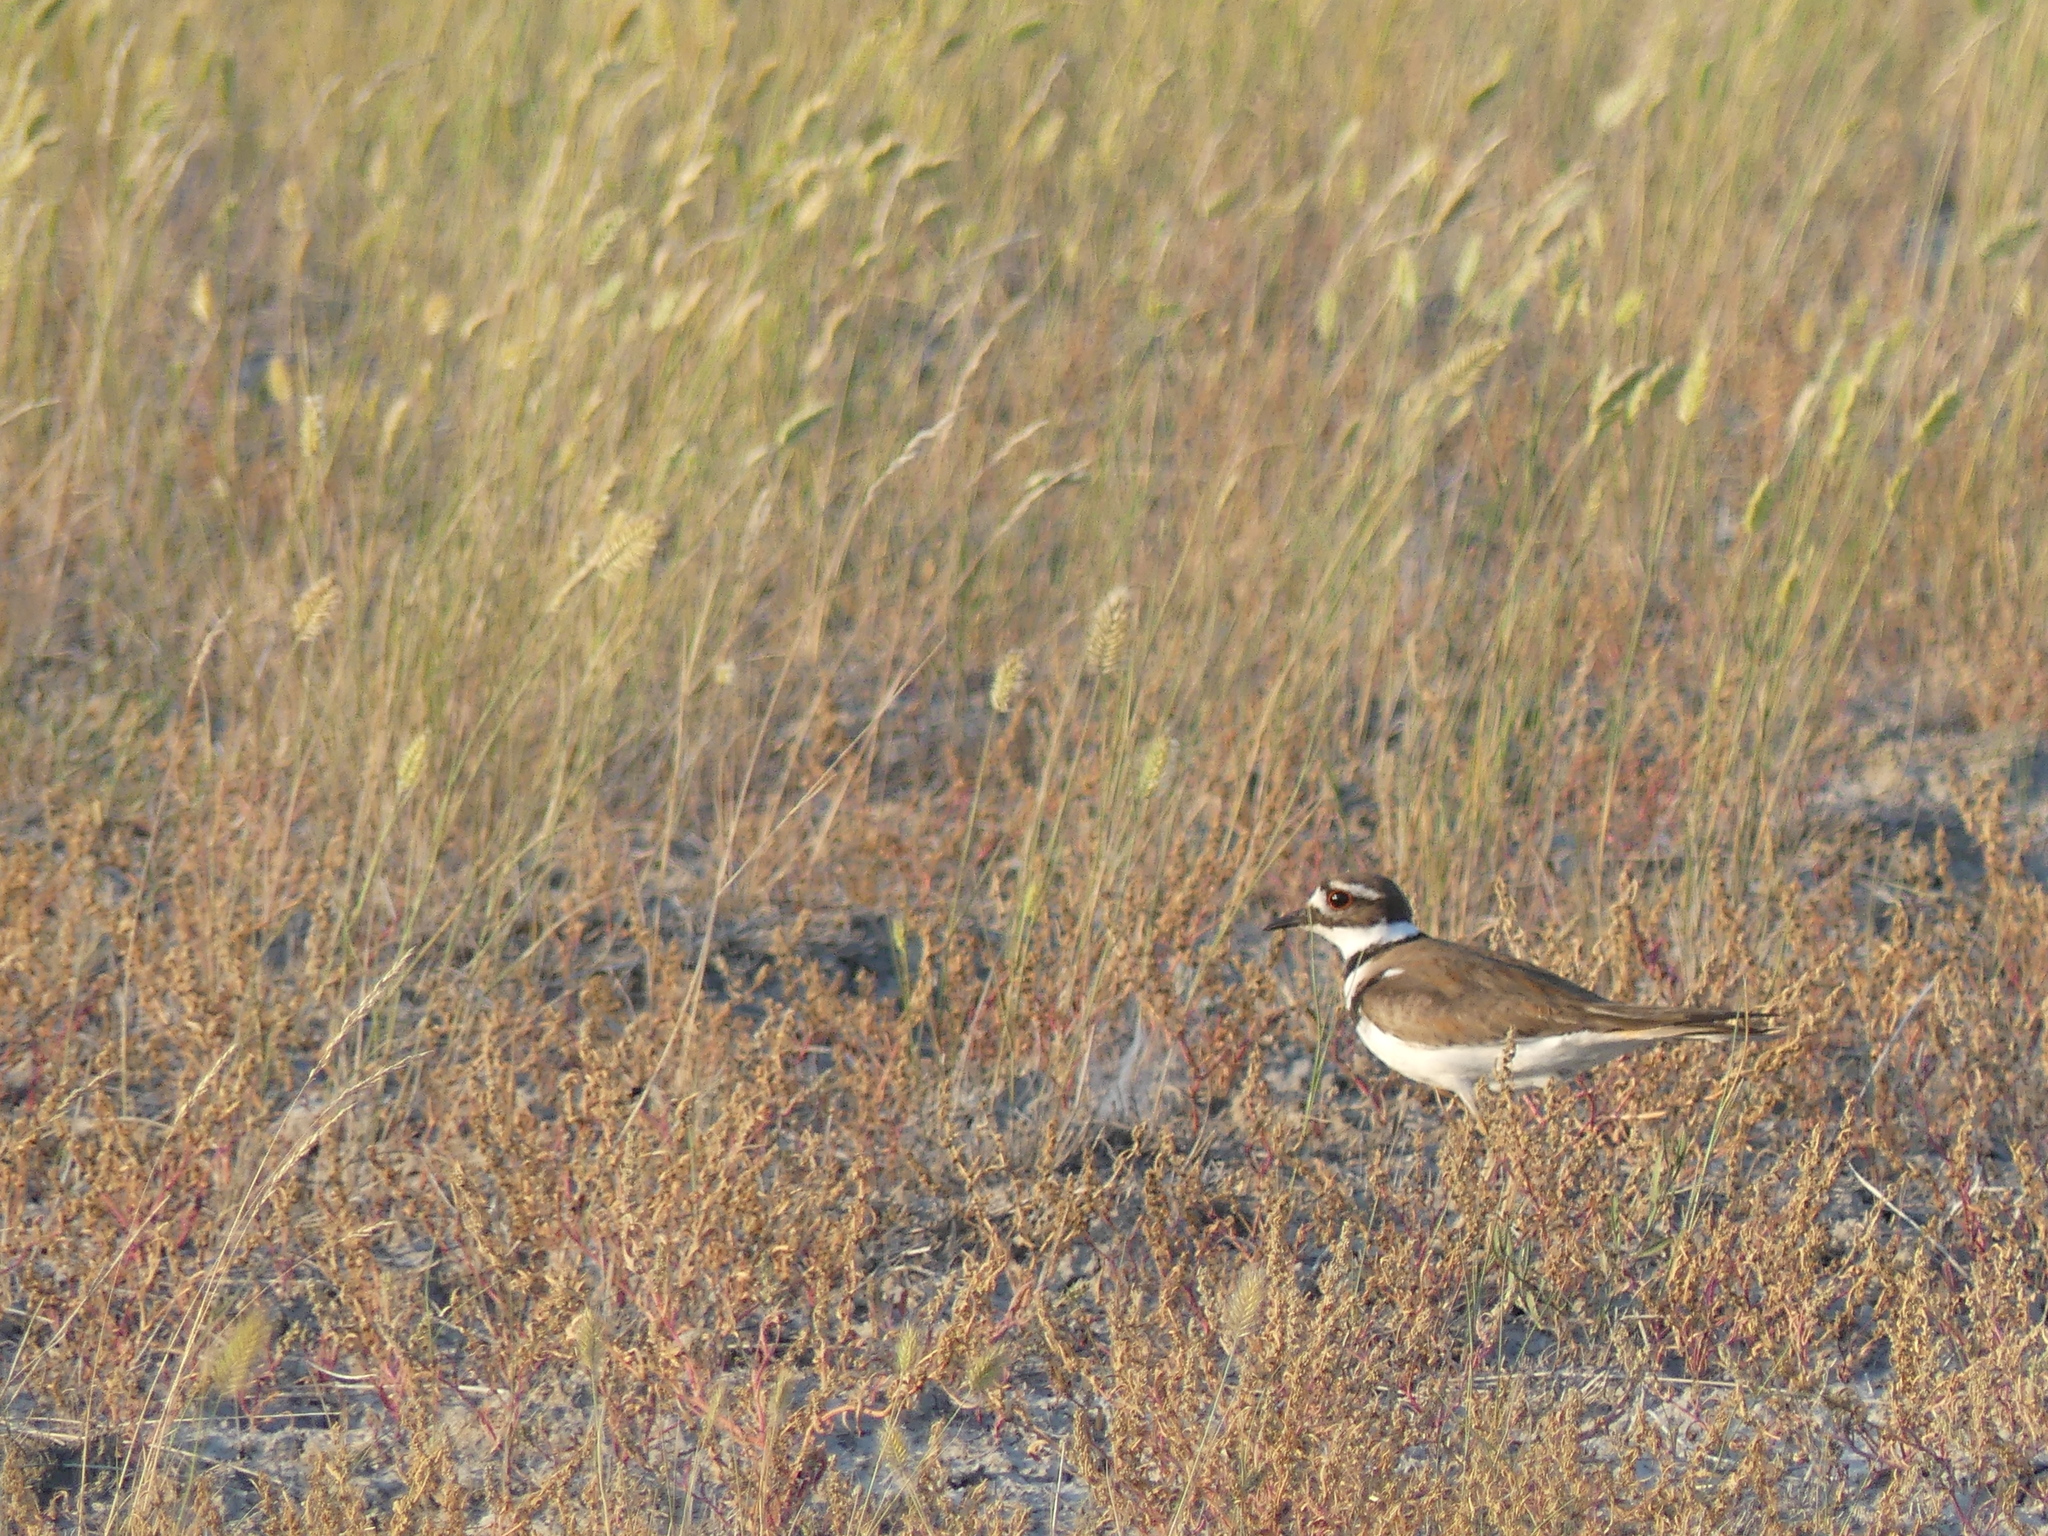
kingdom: Animalia
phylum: Chordata
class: Aves
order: Charadriiformes
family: Charadriidae
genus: Charadrius
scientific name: Charadrius vociferus
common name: Killdeer
